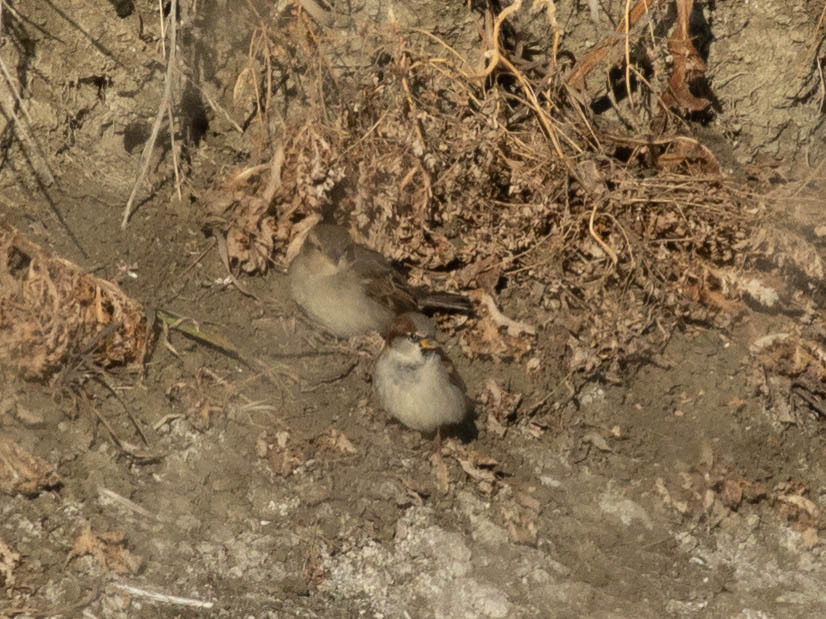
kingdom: Animalia
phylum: Chordata
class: Aves
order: Passeriformes
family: Passeridae
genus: Passer
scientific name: Passer domesticus
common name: House sparrow
